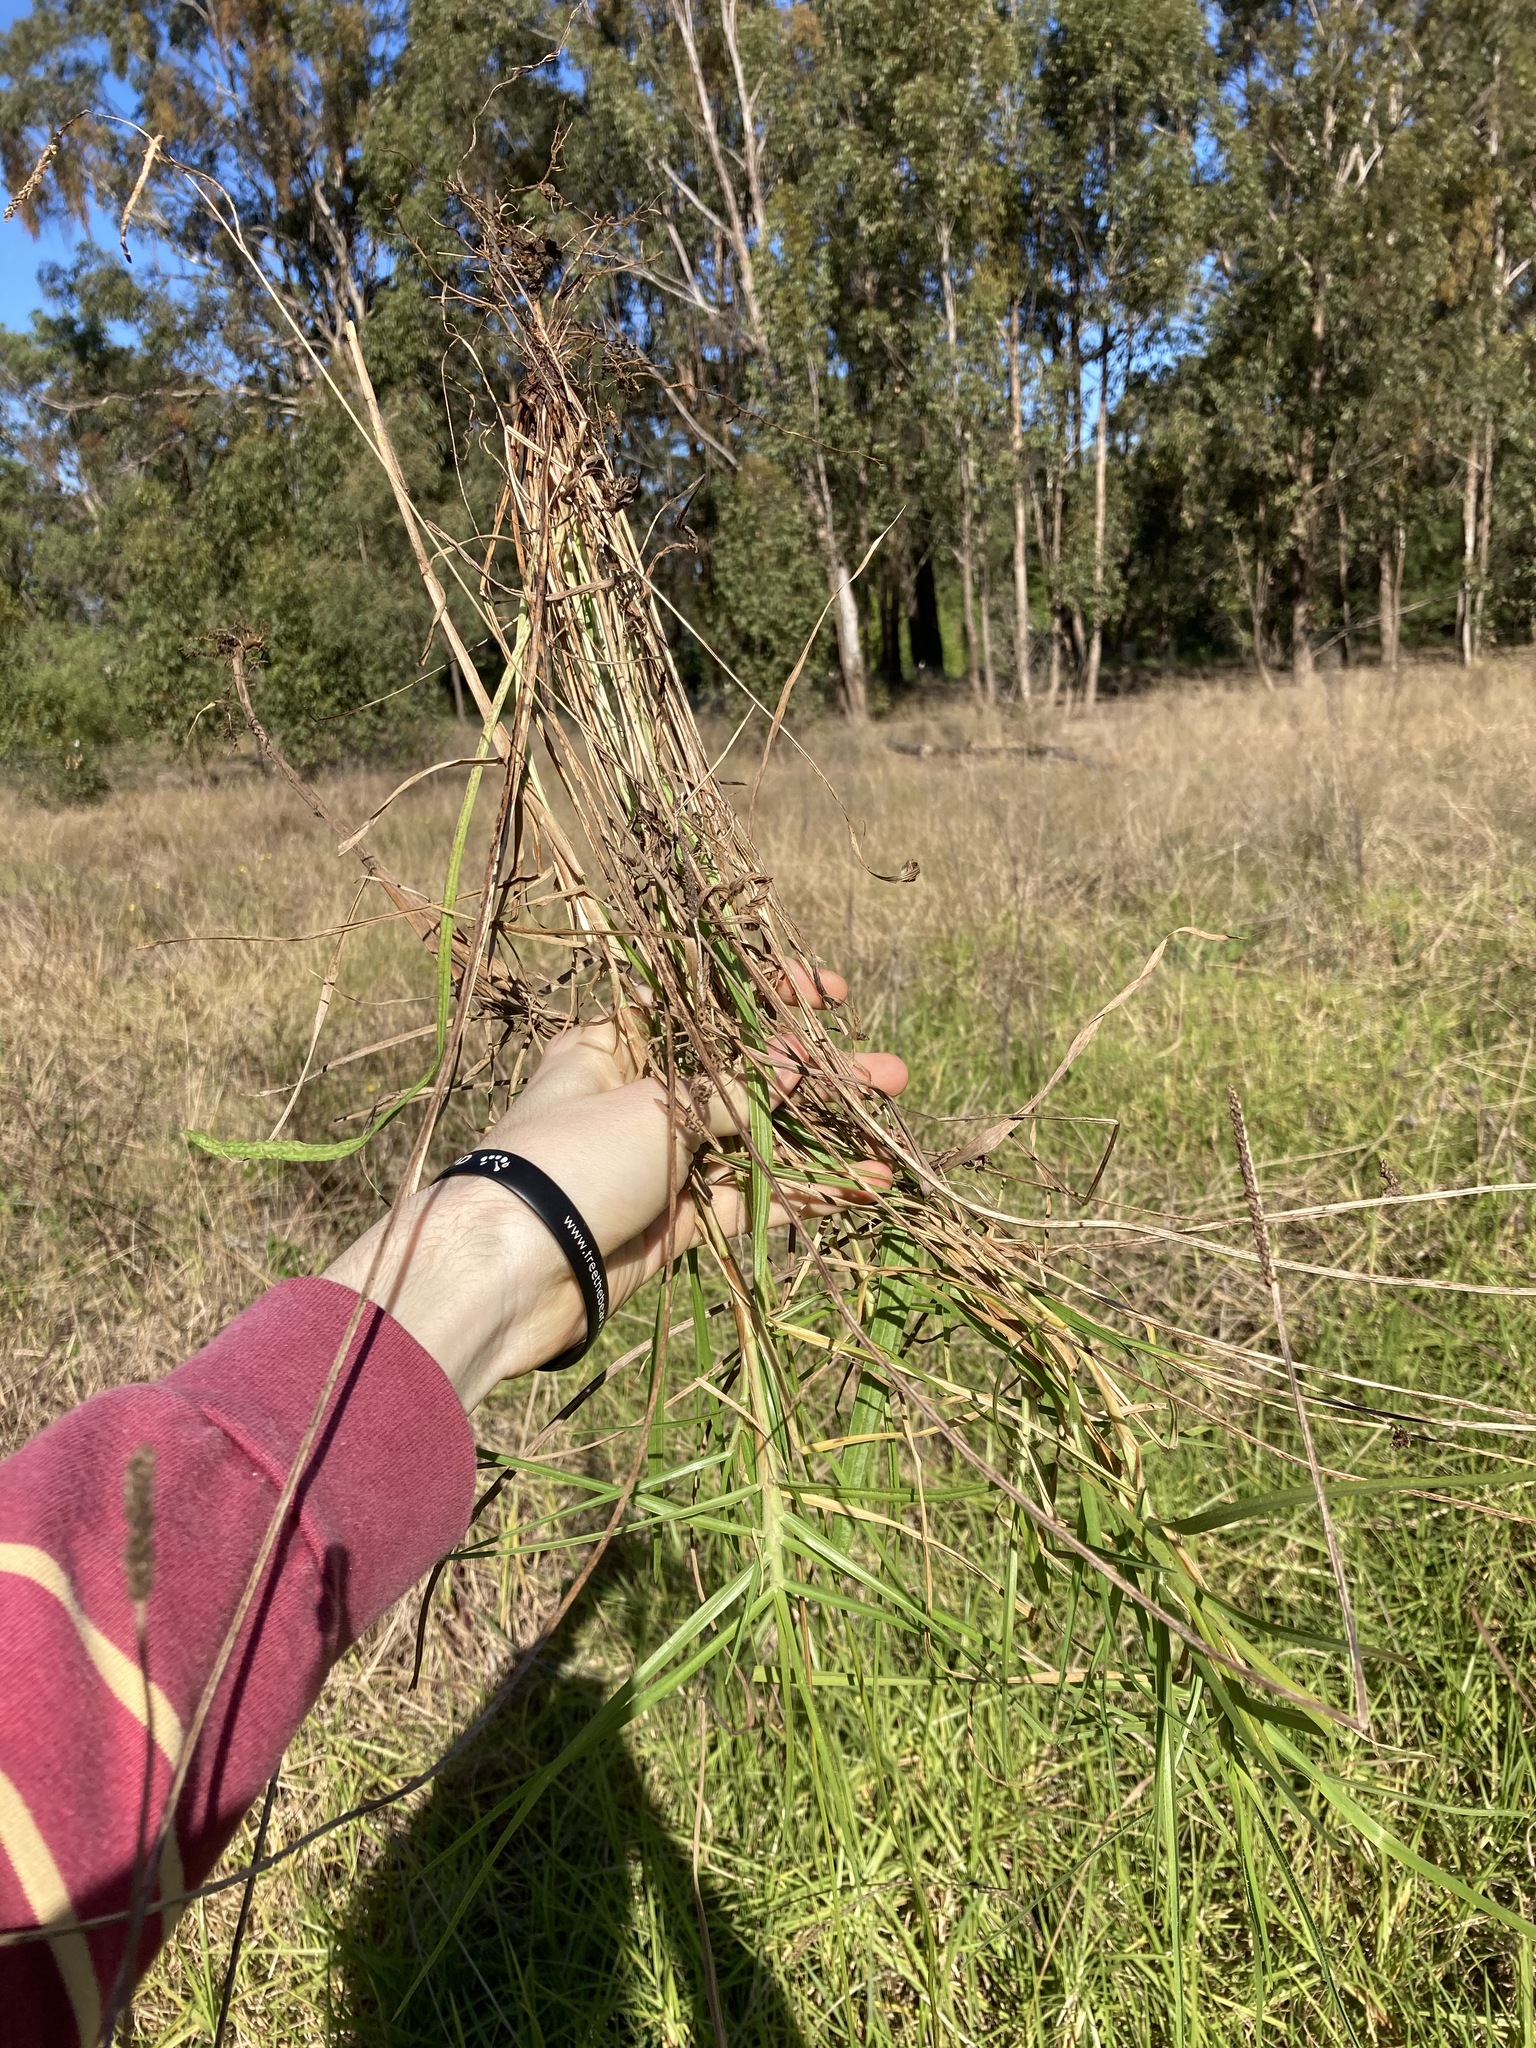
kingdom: Plantae
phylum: Tracheophyta
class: Liliopsida
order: Poales
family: Poaceae
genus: Cenchrus
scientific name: Cenchrus clandestinus
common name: Kikuyugrass
